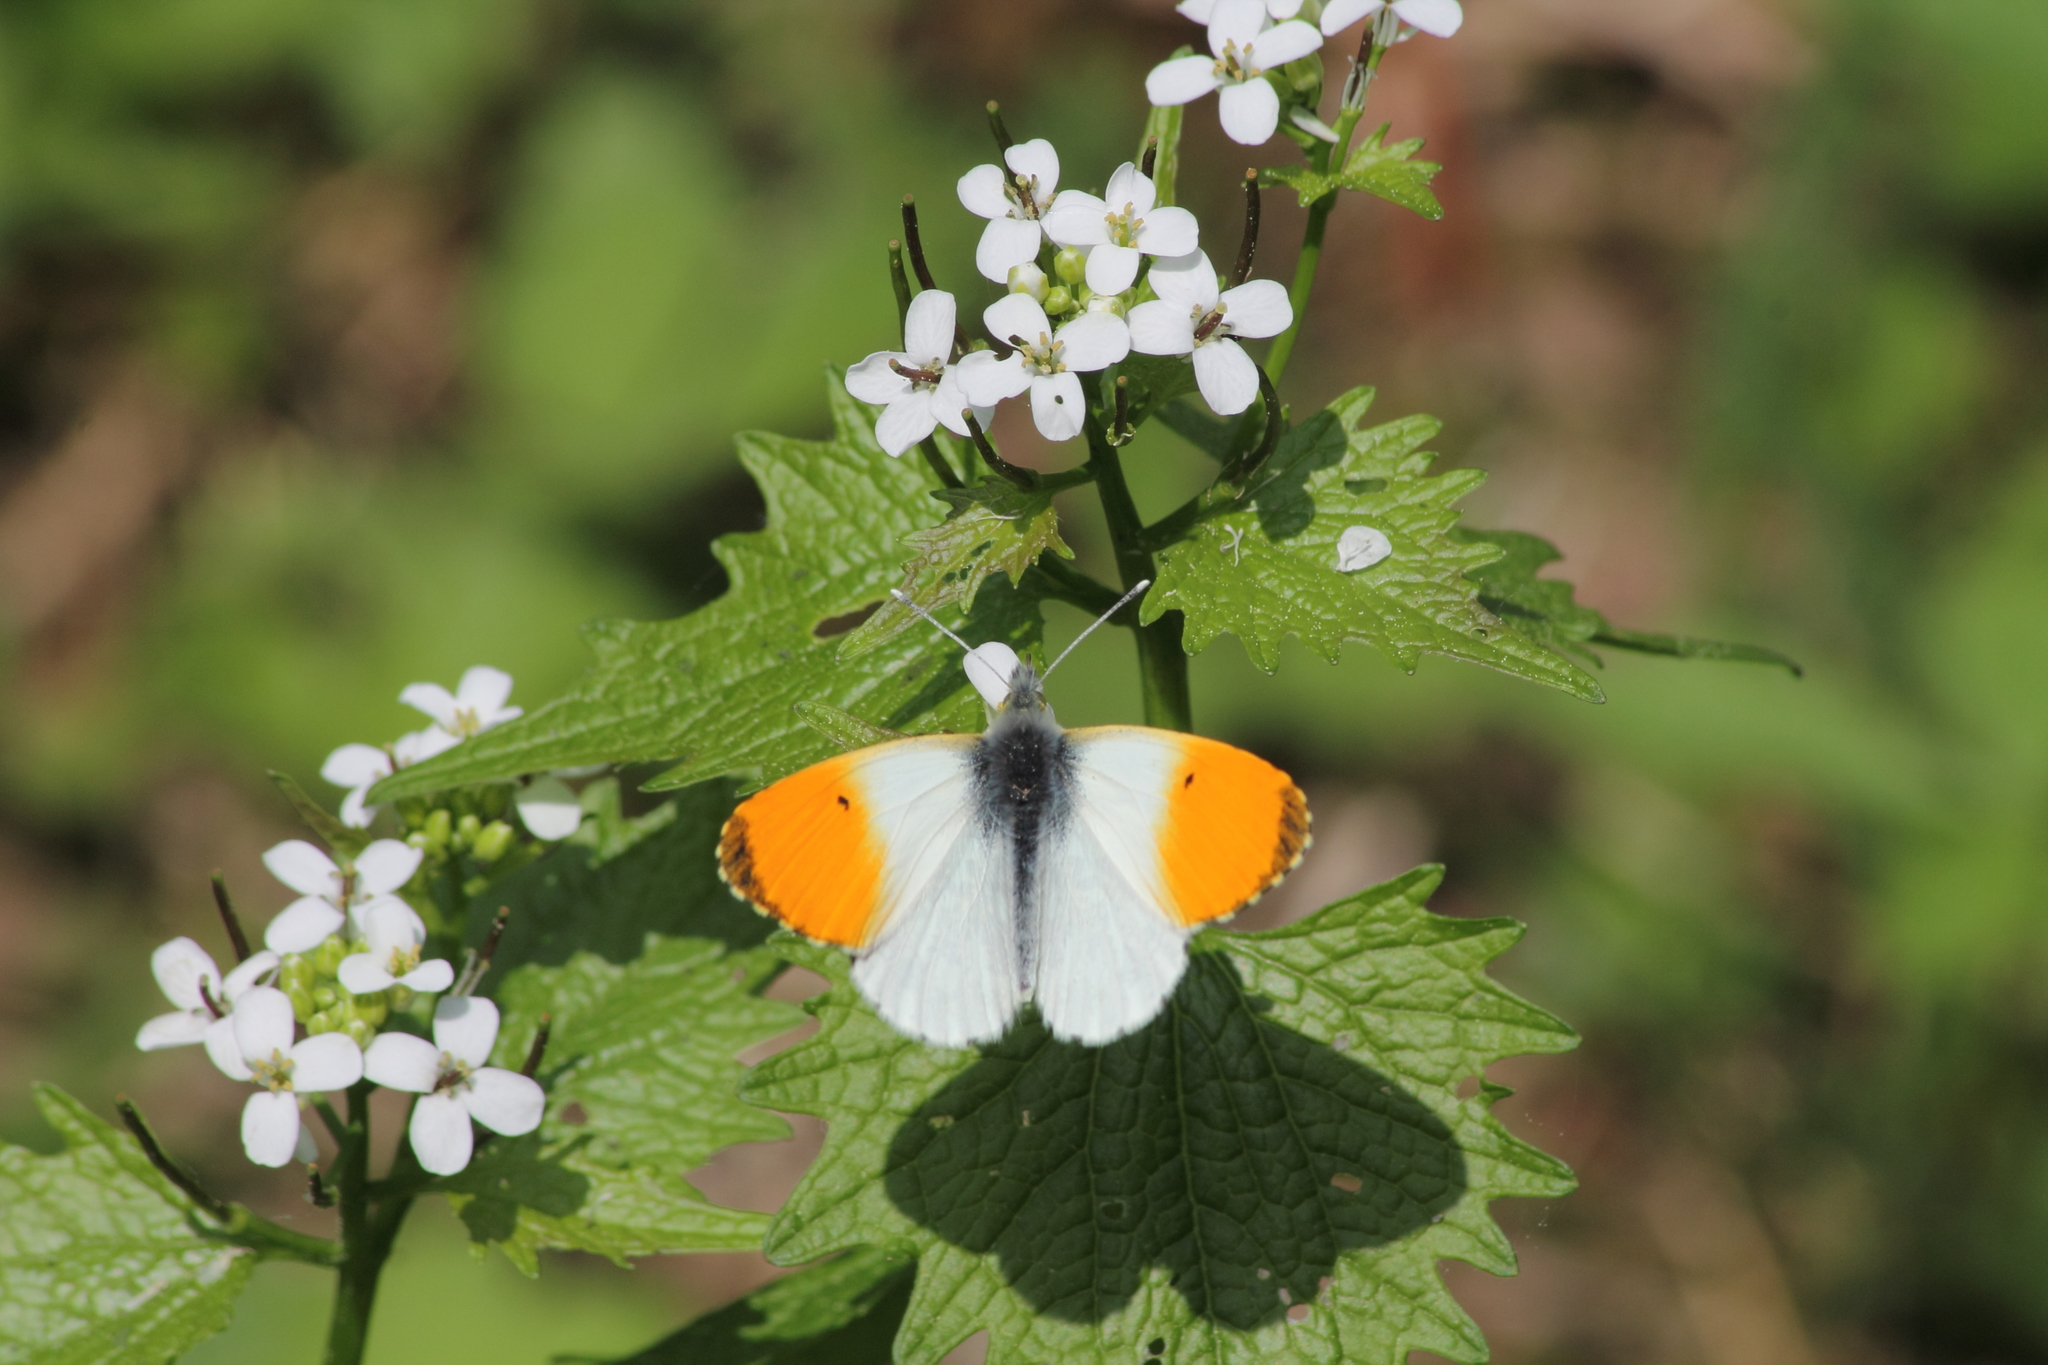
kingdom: Animalia
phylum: Arthropoda
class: Insecta
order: Lepidoptera
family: Pieridae
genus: Anthocharis
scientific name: Anthocharis cardamines
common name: Orange-tip
